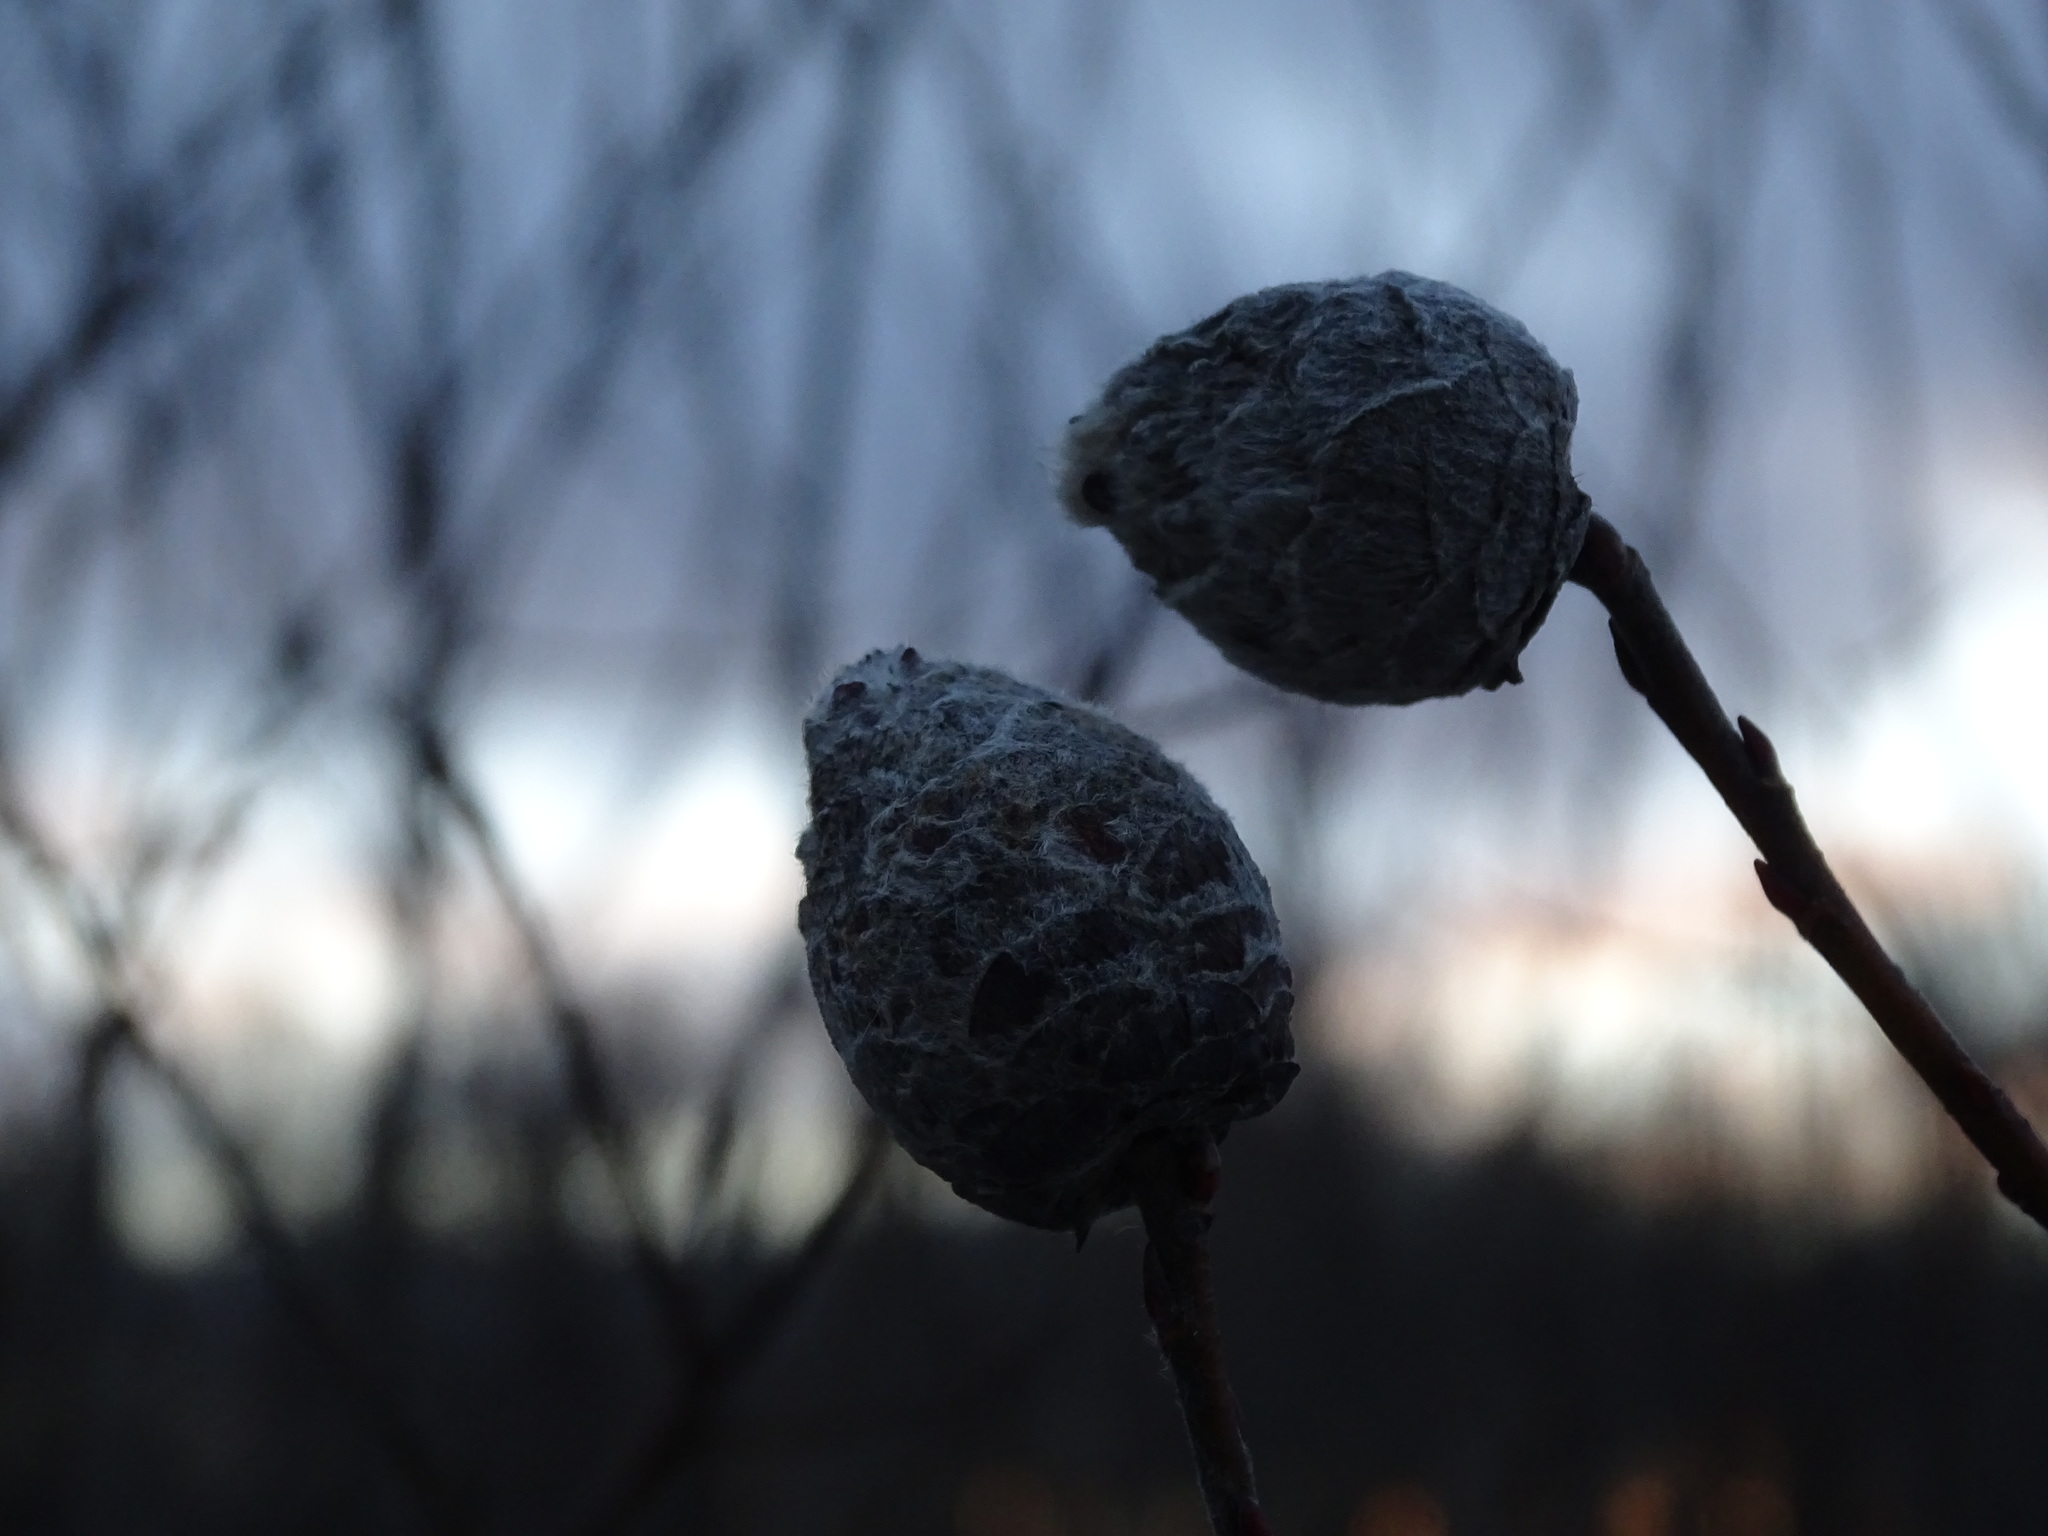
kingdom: Animalia
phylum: Arthropoda
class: Insecta
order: Diptera
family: Cecidomyiidae
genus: Rabdophaga
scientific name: Rabdophaga strobiloides
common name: Willow pinecone gall midge
